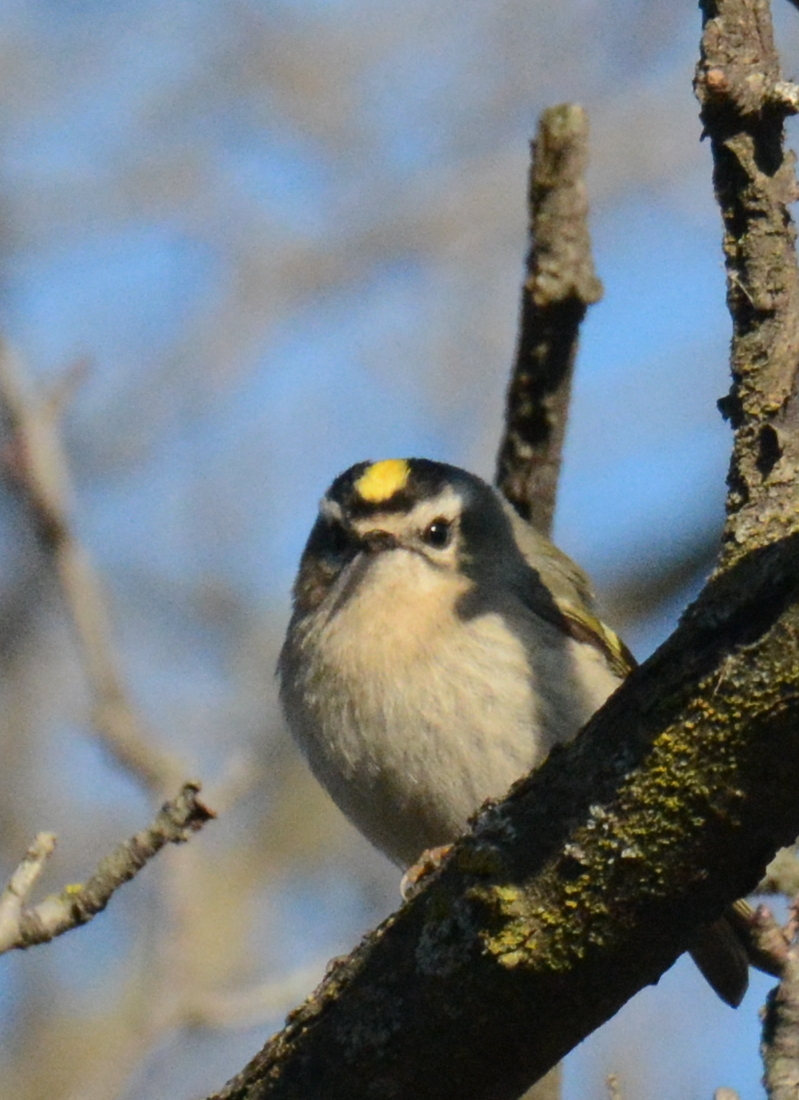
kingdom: Animalia
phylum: Chordata
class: Aves
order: Passeriformes
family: Regulidae
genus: Regulus
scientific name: Regulus satrapa
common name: Golden-crowned kinglet
